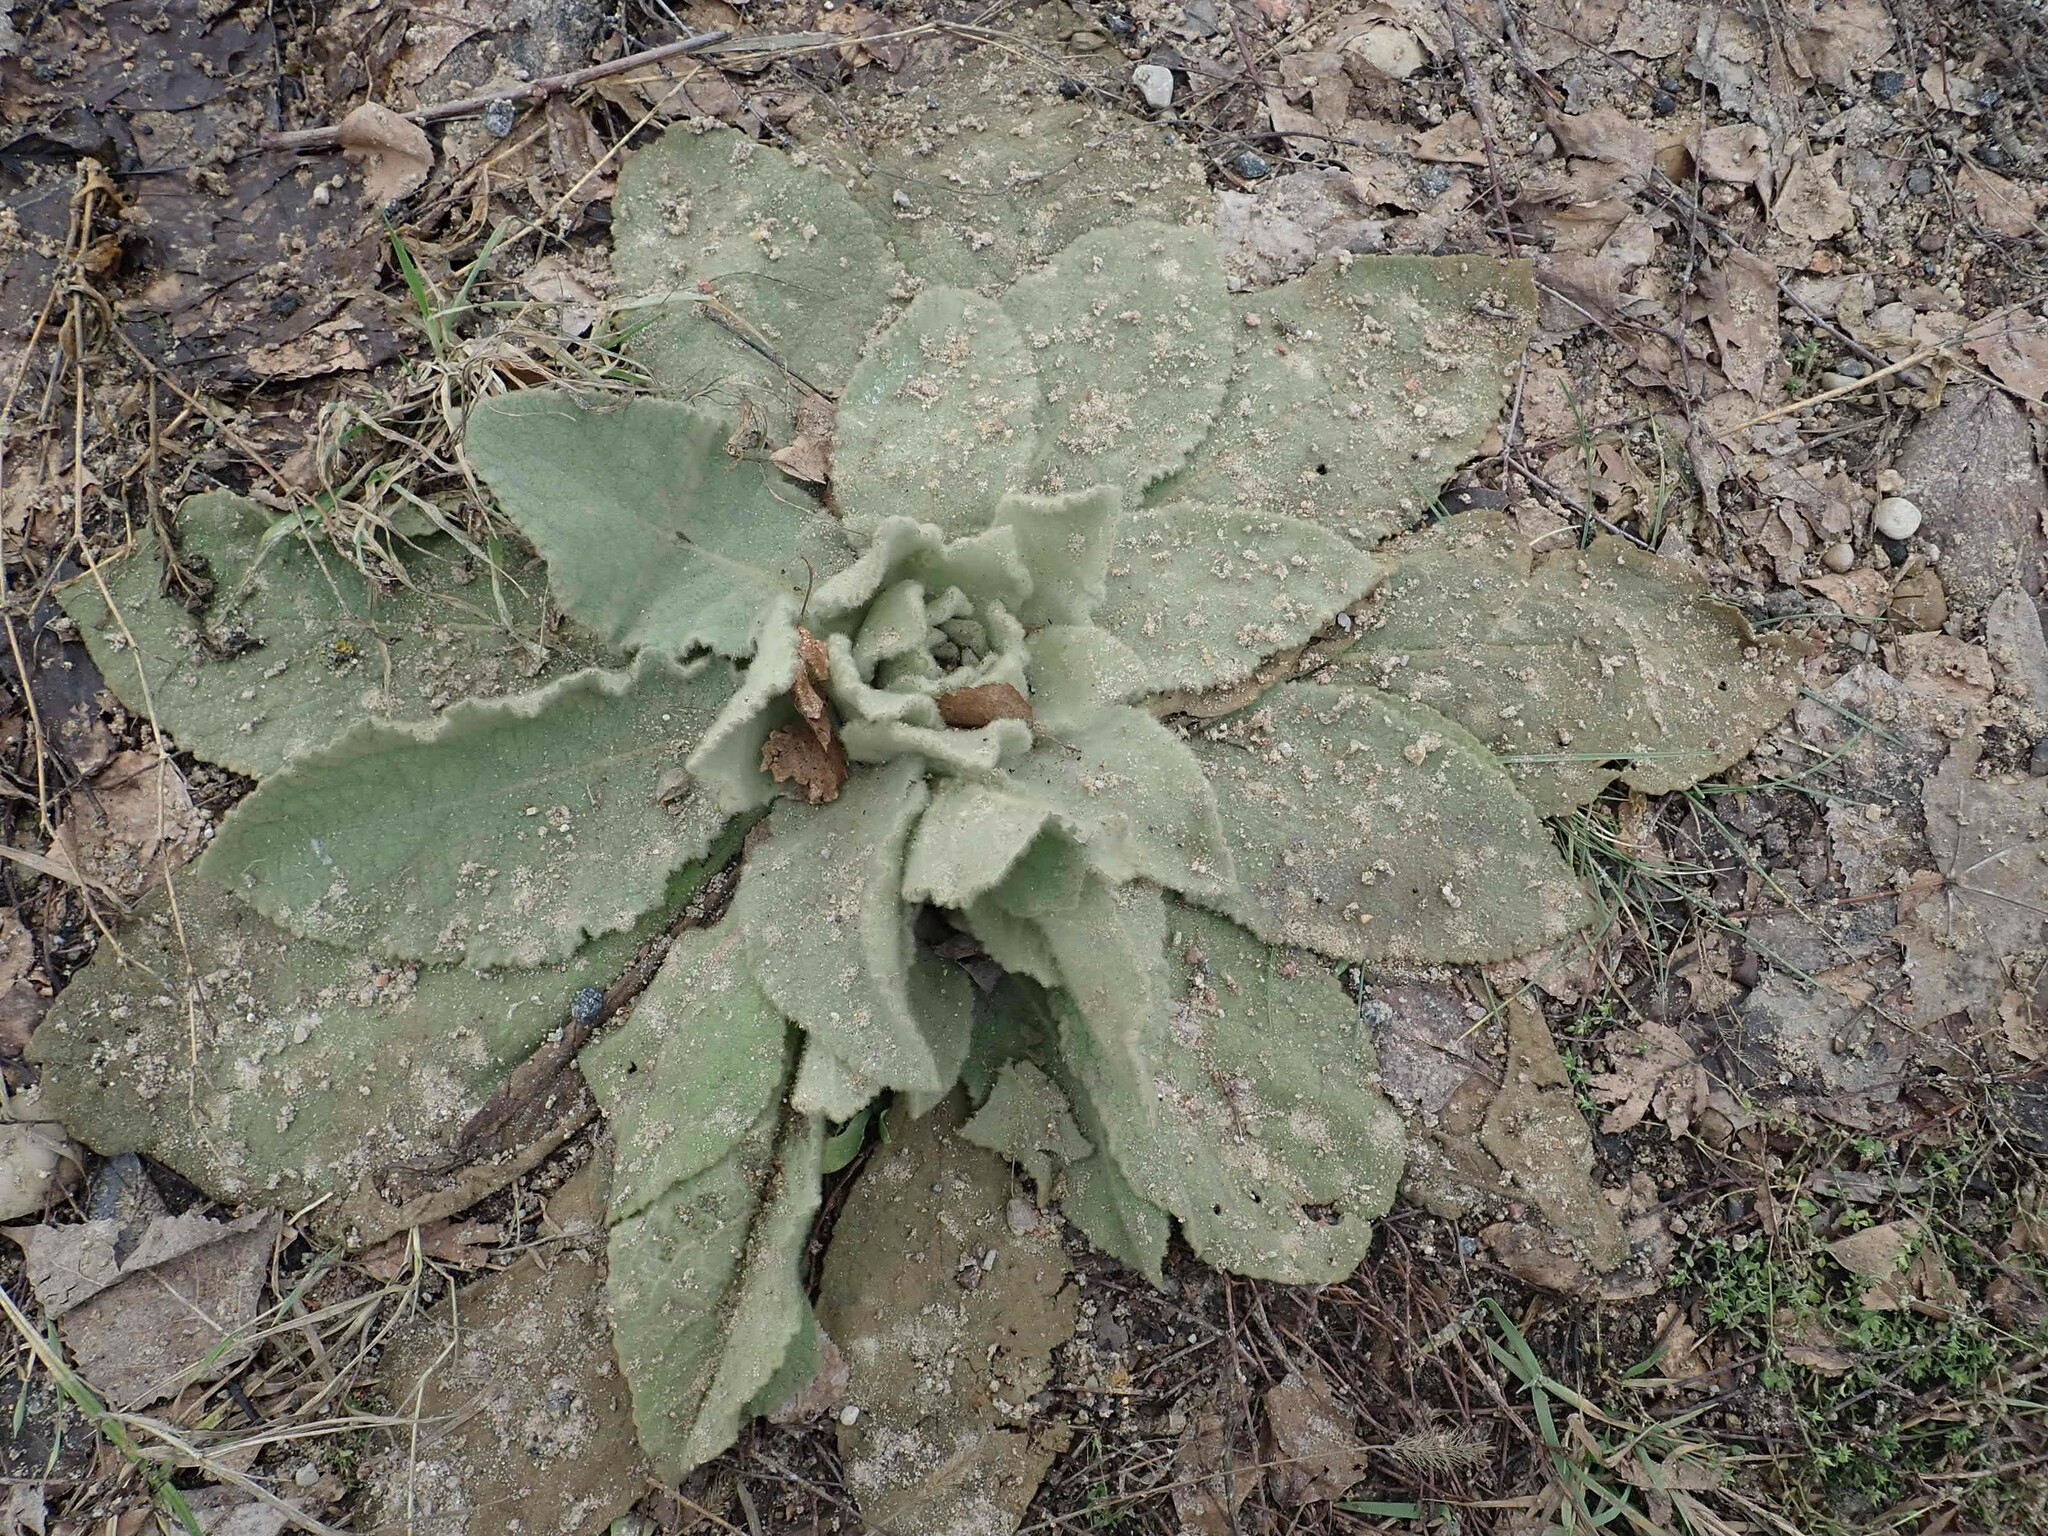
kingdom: Plantae
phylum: Tracheophyta
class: Magnoliopsida
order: Lamiales
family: Scrophulariaceae
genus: Verbascum
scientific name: Verbascum thapsus
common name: Common mullein
